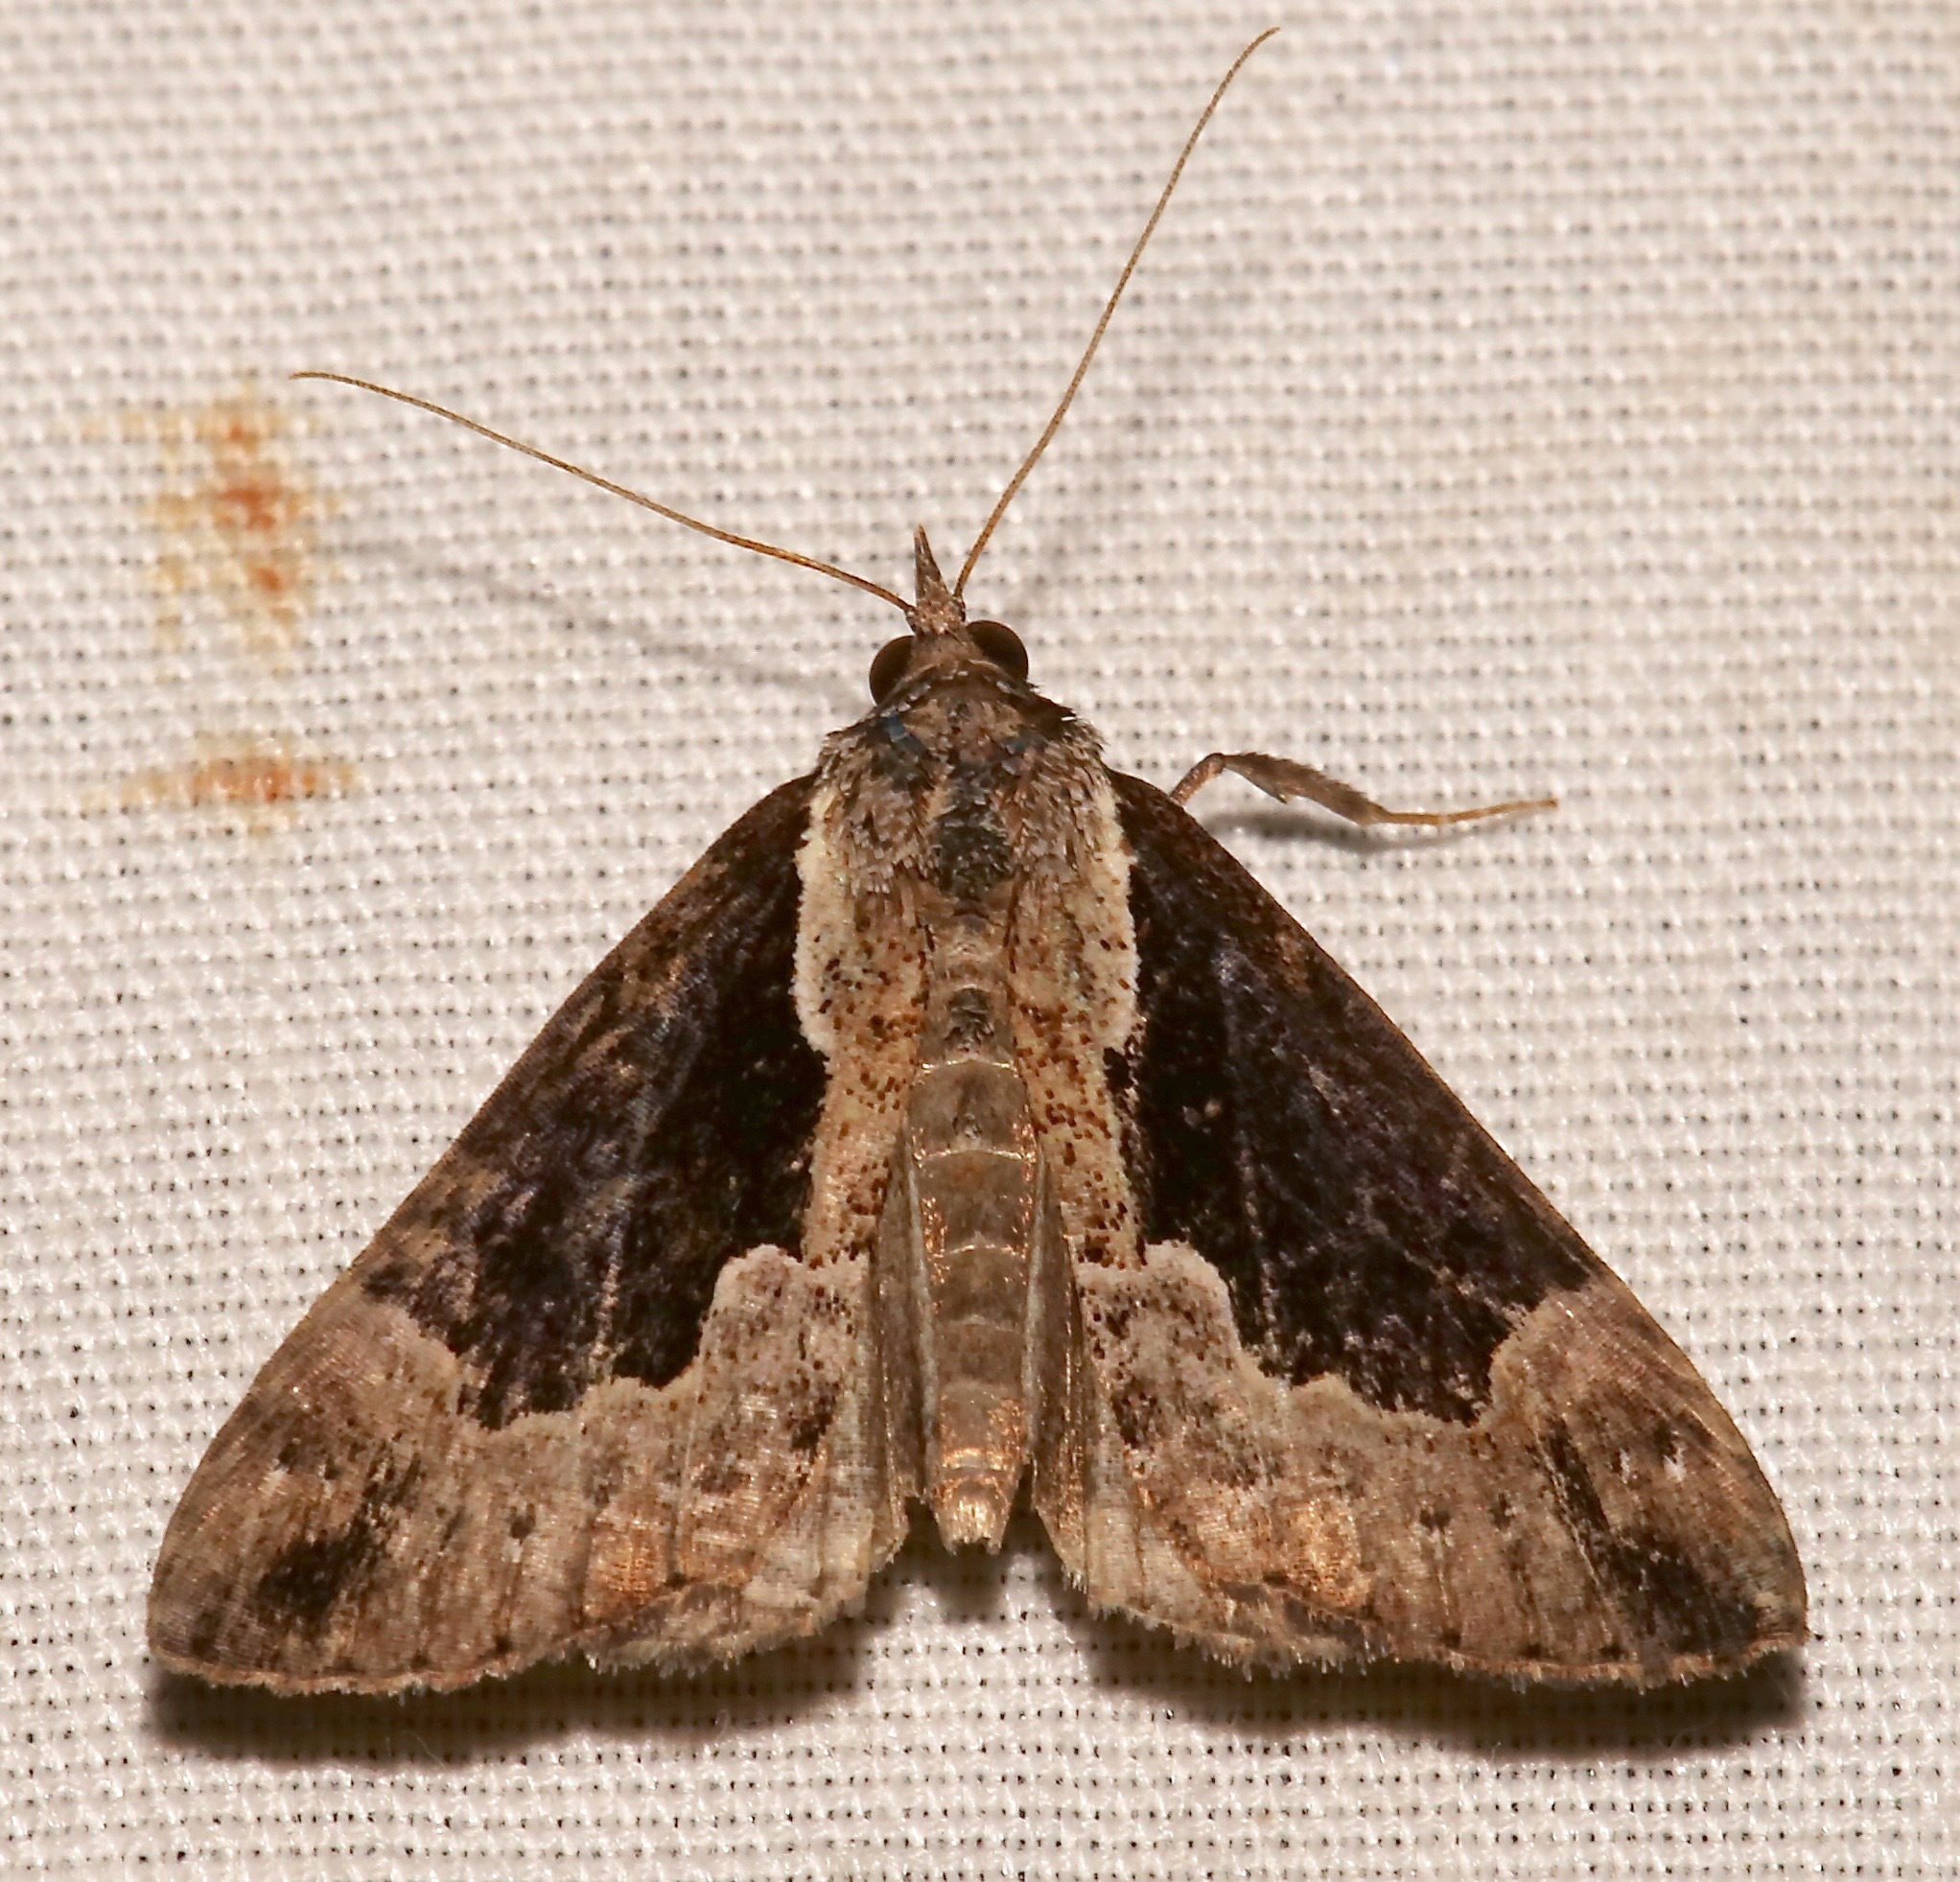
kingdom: Animalia
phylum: Arthropoda
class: Insecta
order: Lepidoptera
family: Erebidae
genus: Hypena
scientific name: Hypena baltimoralis
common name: Baltimore snout
